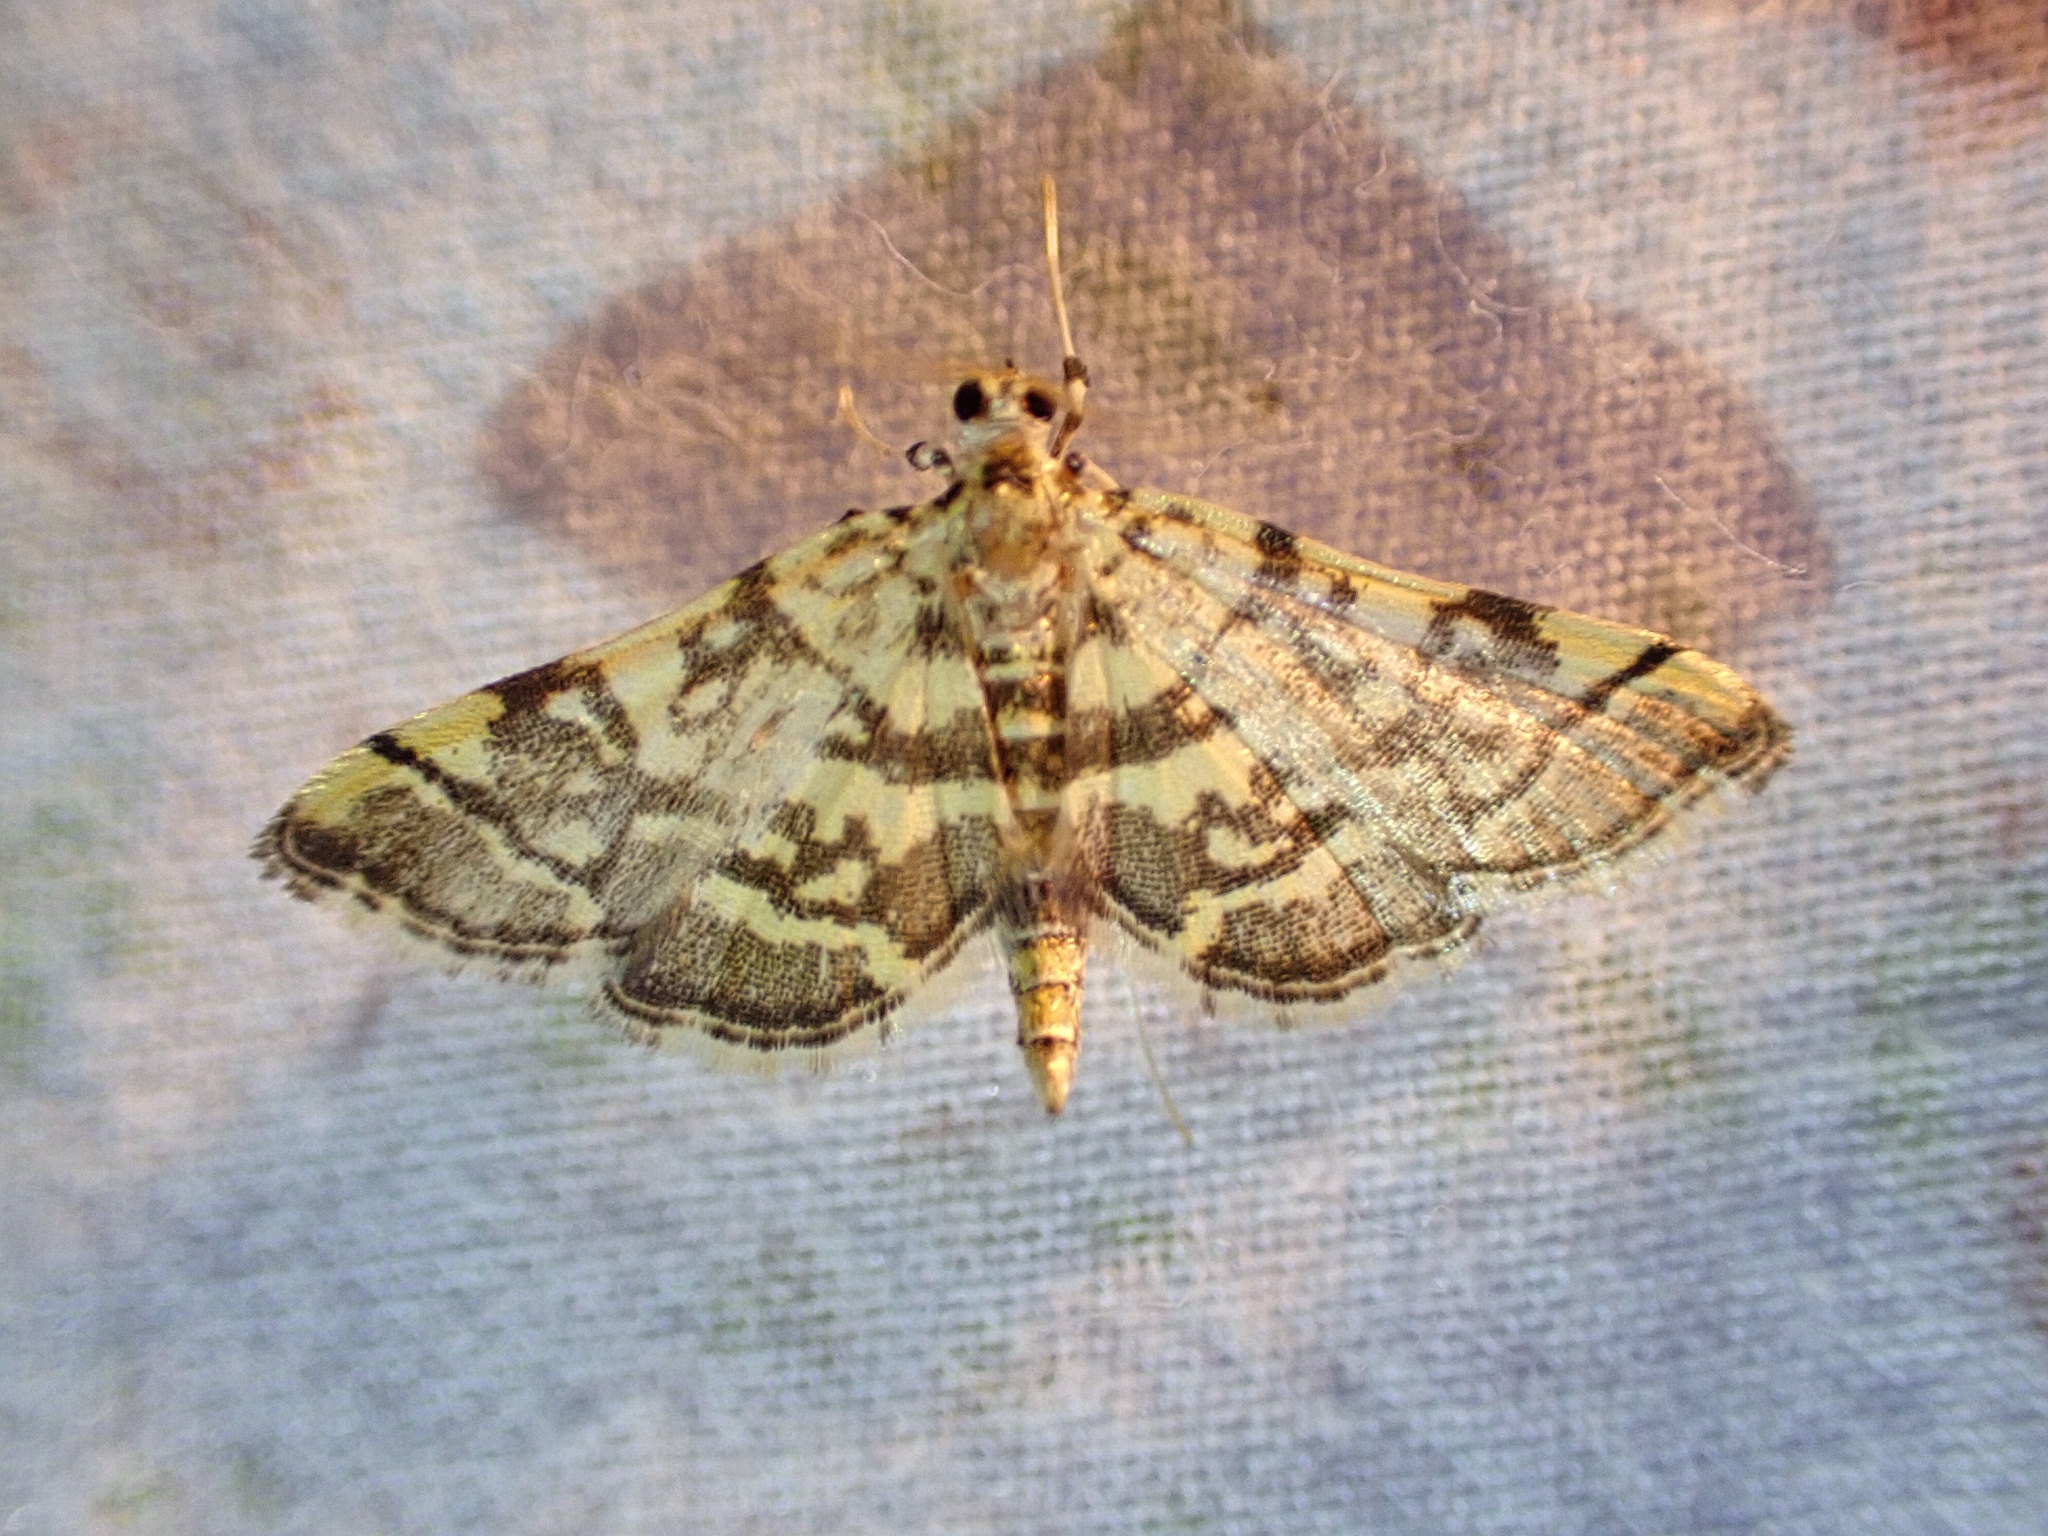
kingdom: Animalia
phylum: Arthropoda
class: Insecta
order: Lepidoptera
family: Crambidae
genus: Apogeshna
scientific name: Apogeshna stenialis
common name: Checkered apogeshna moth
